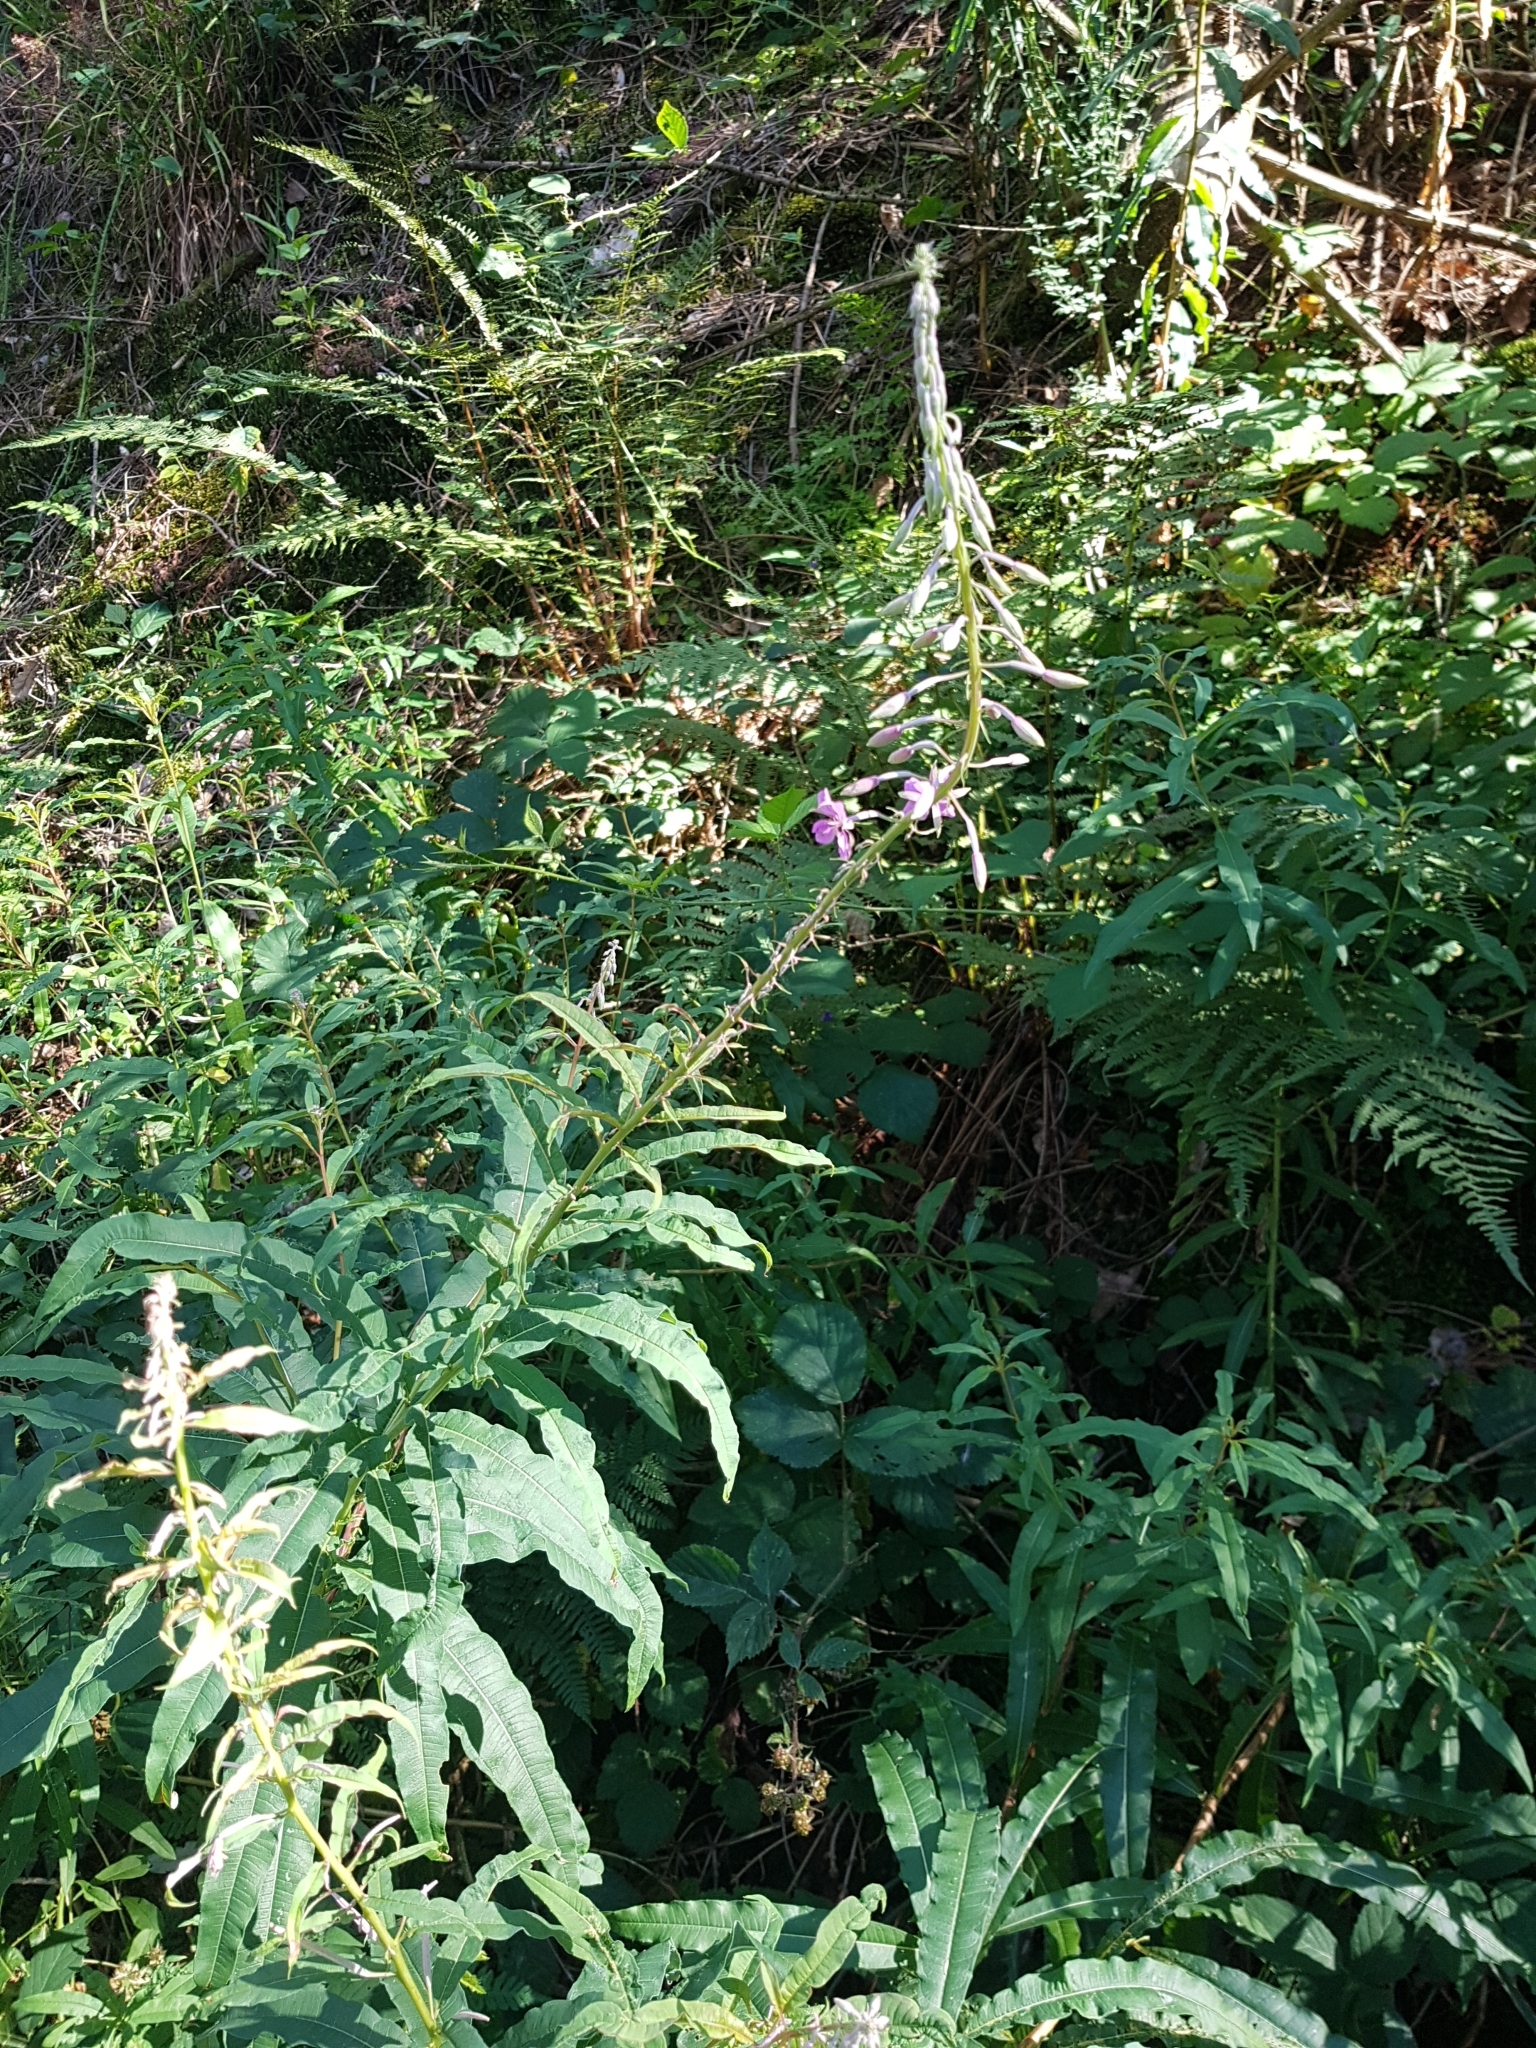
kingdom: Plantae
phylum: Tracheophyta
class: Magnoliopsida
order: Myrtales
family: Onagraceae
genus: Chamaenerion
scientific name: Chamaenerion angustifolium
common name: Fireweed
